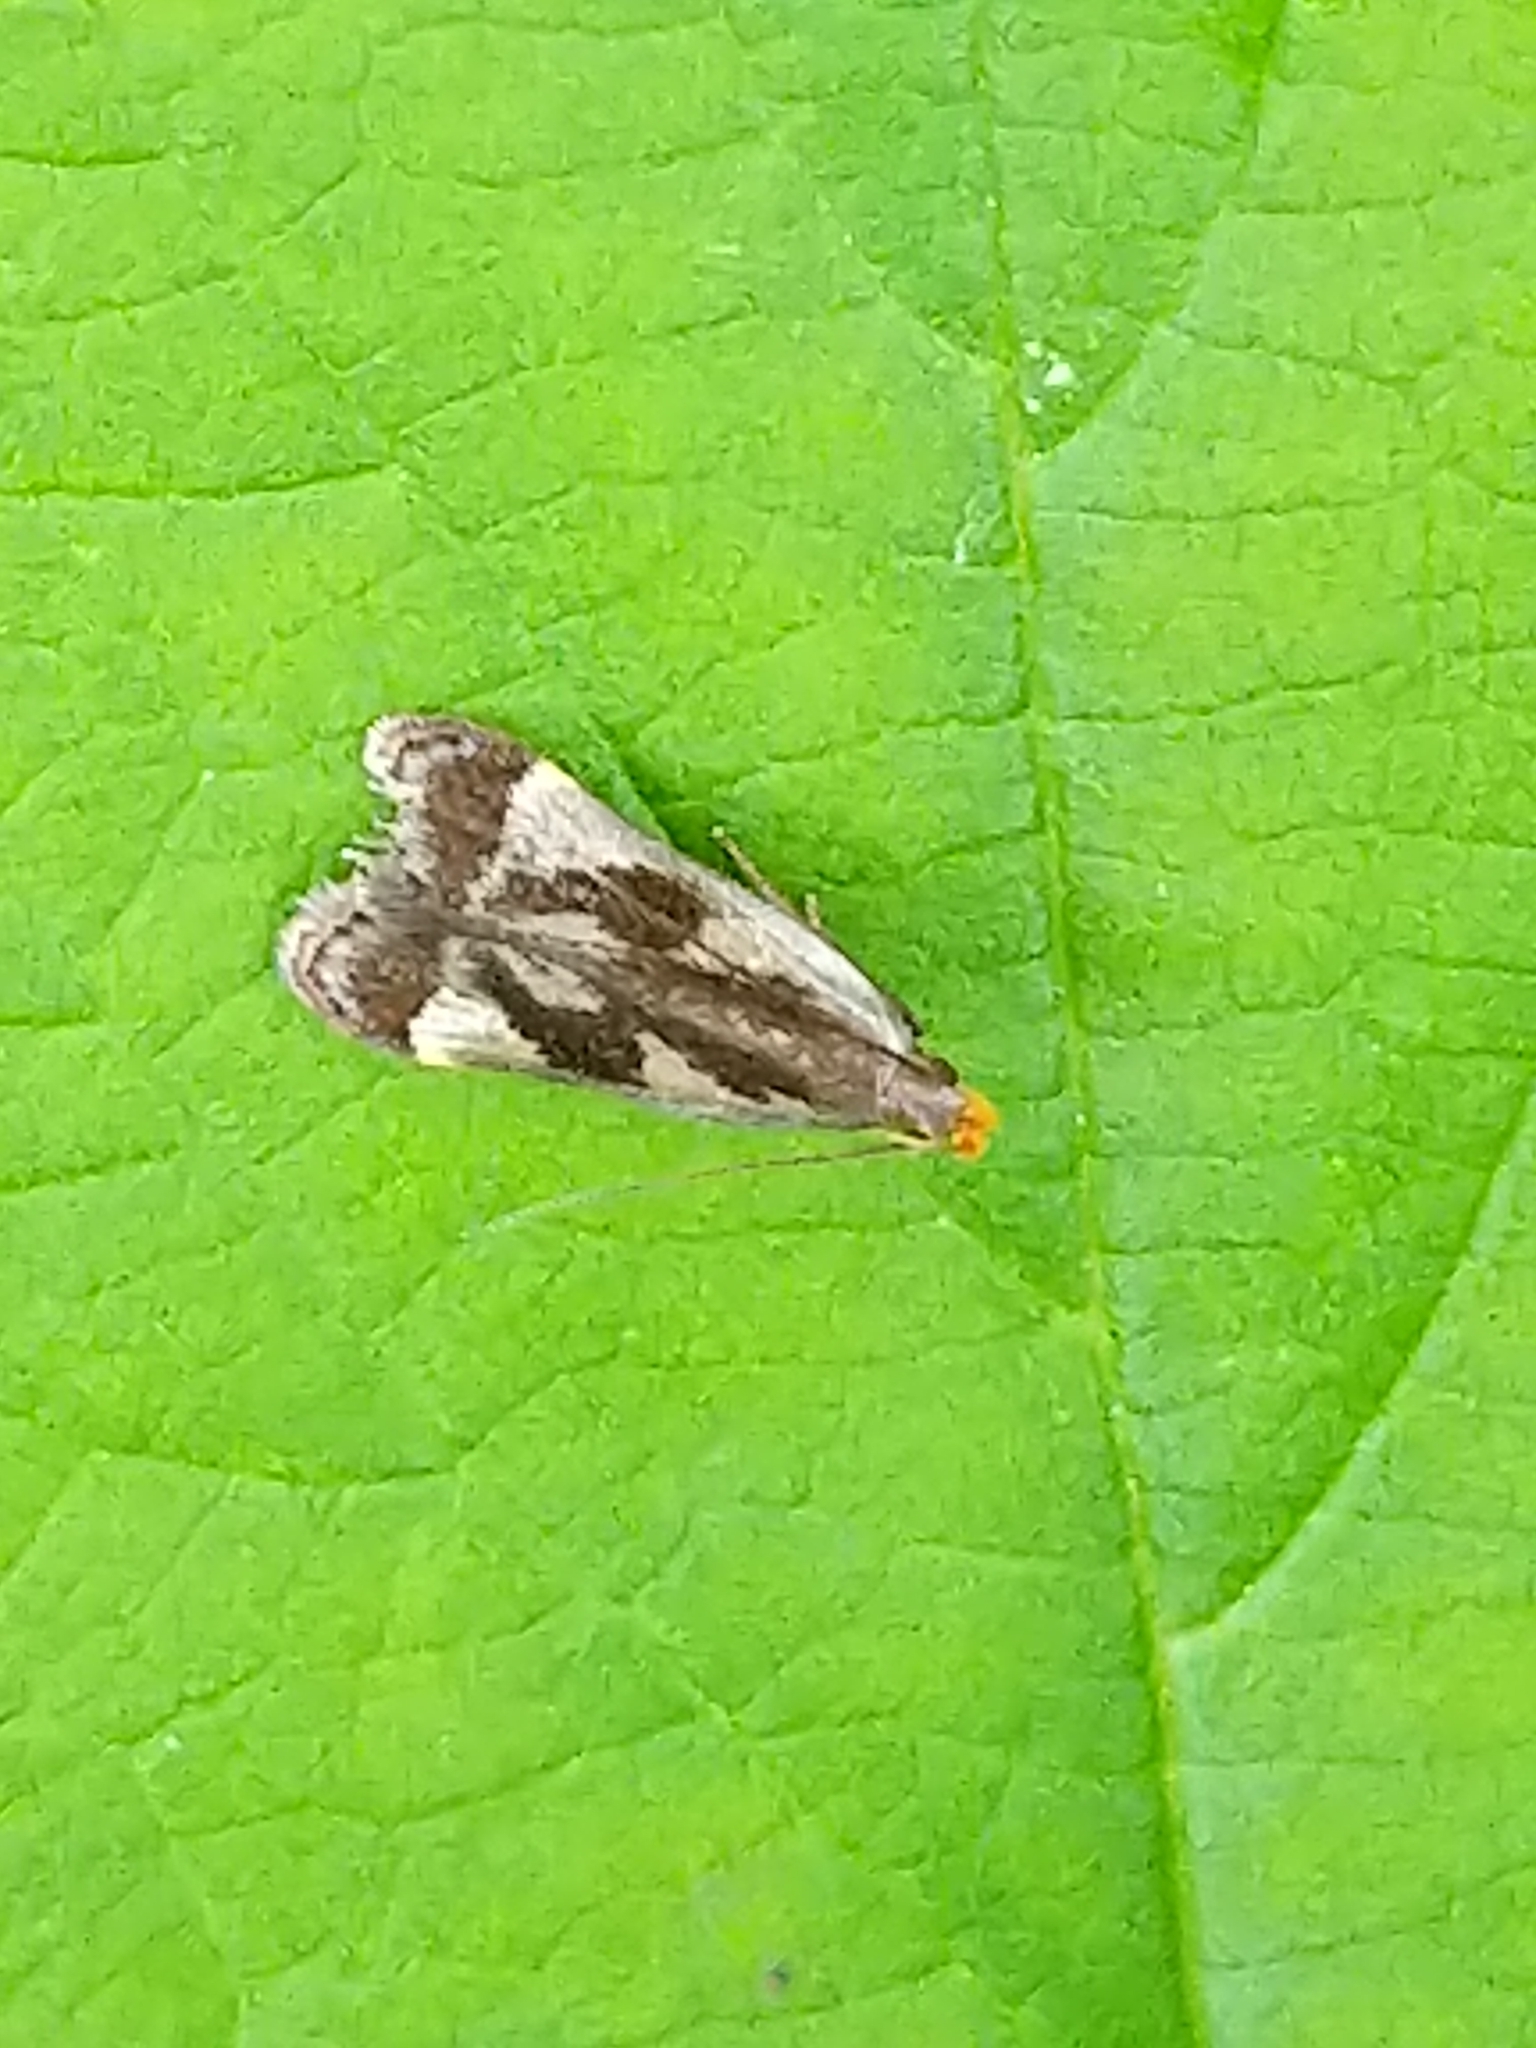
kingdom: Animalia
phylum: Arthropoda
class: Insecta
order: Lepidoptera
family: Gelechiidae
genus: Dichomeris
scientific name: Dichomeris ochripalpella
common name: Shining dichomeris moth
